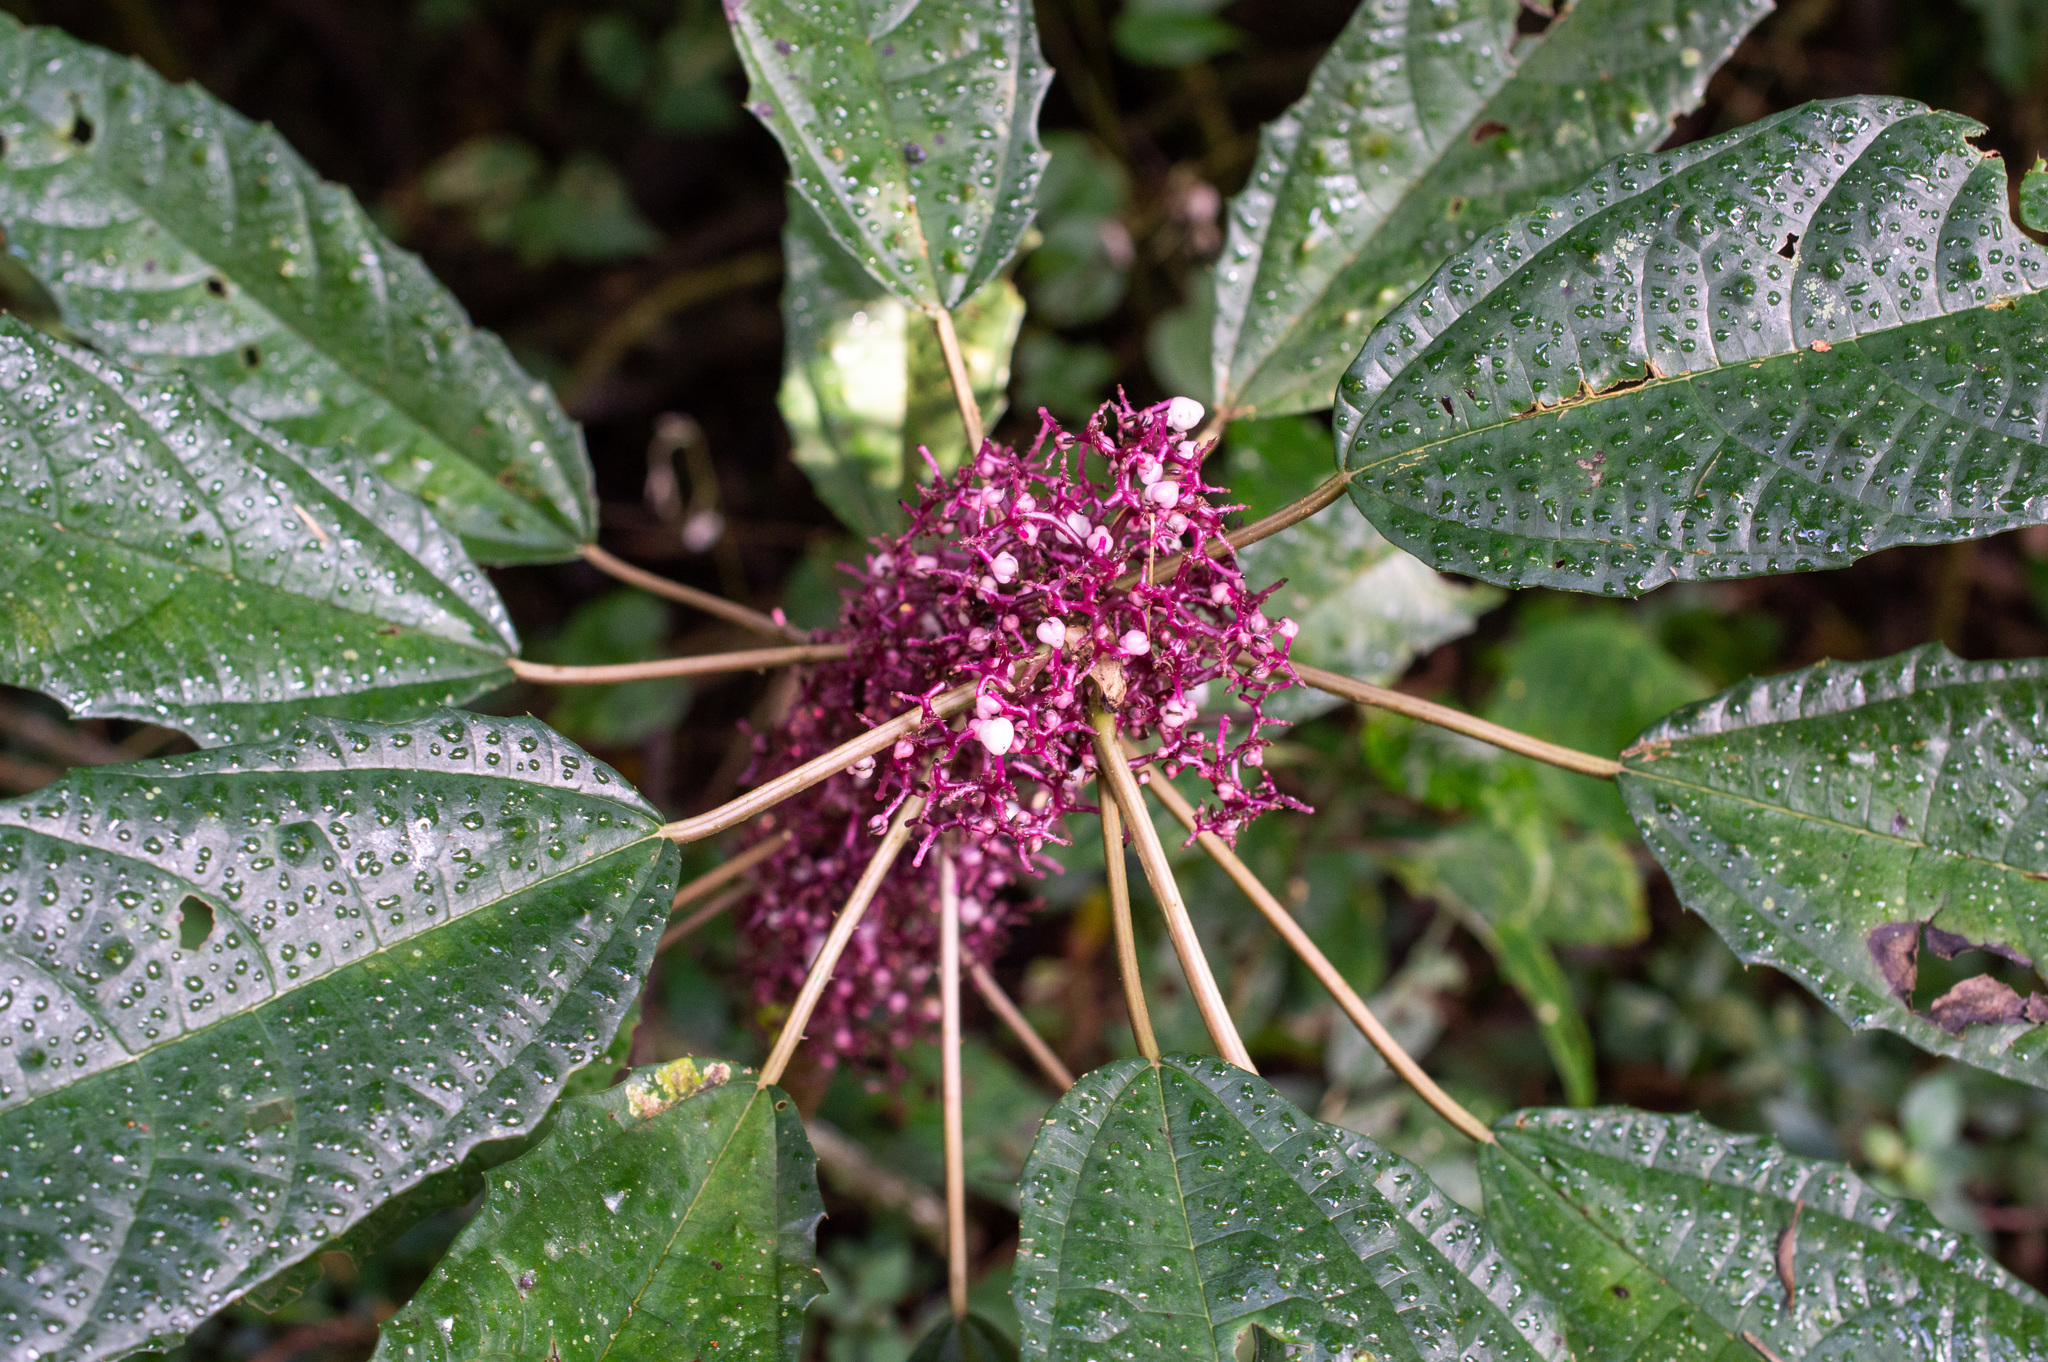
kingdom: Plantae
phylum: Tracheophyta
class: Magnoliopsida
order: Rosales
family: Urticaceae
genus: Urera
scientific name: Urera nitida
